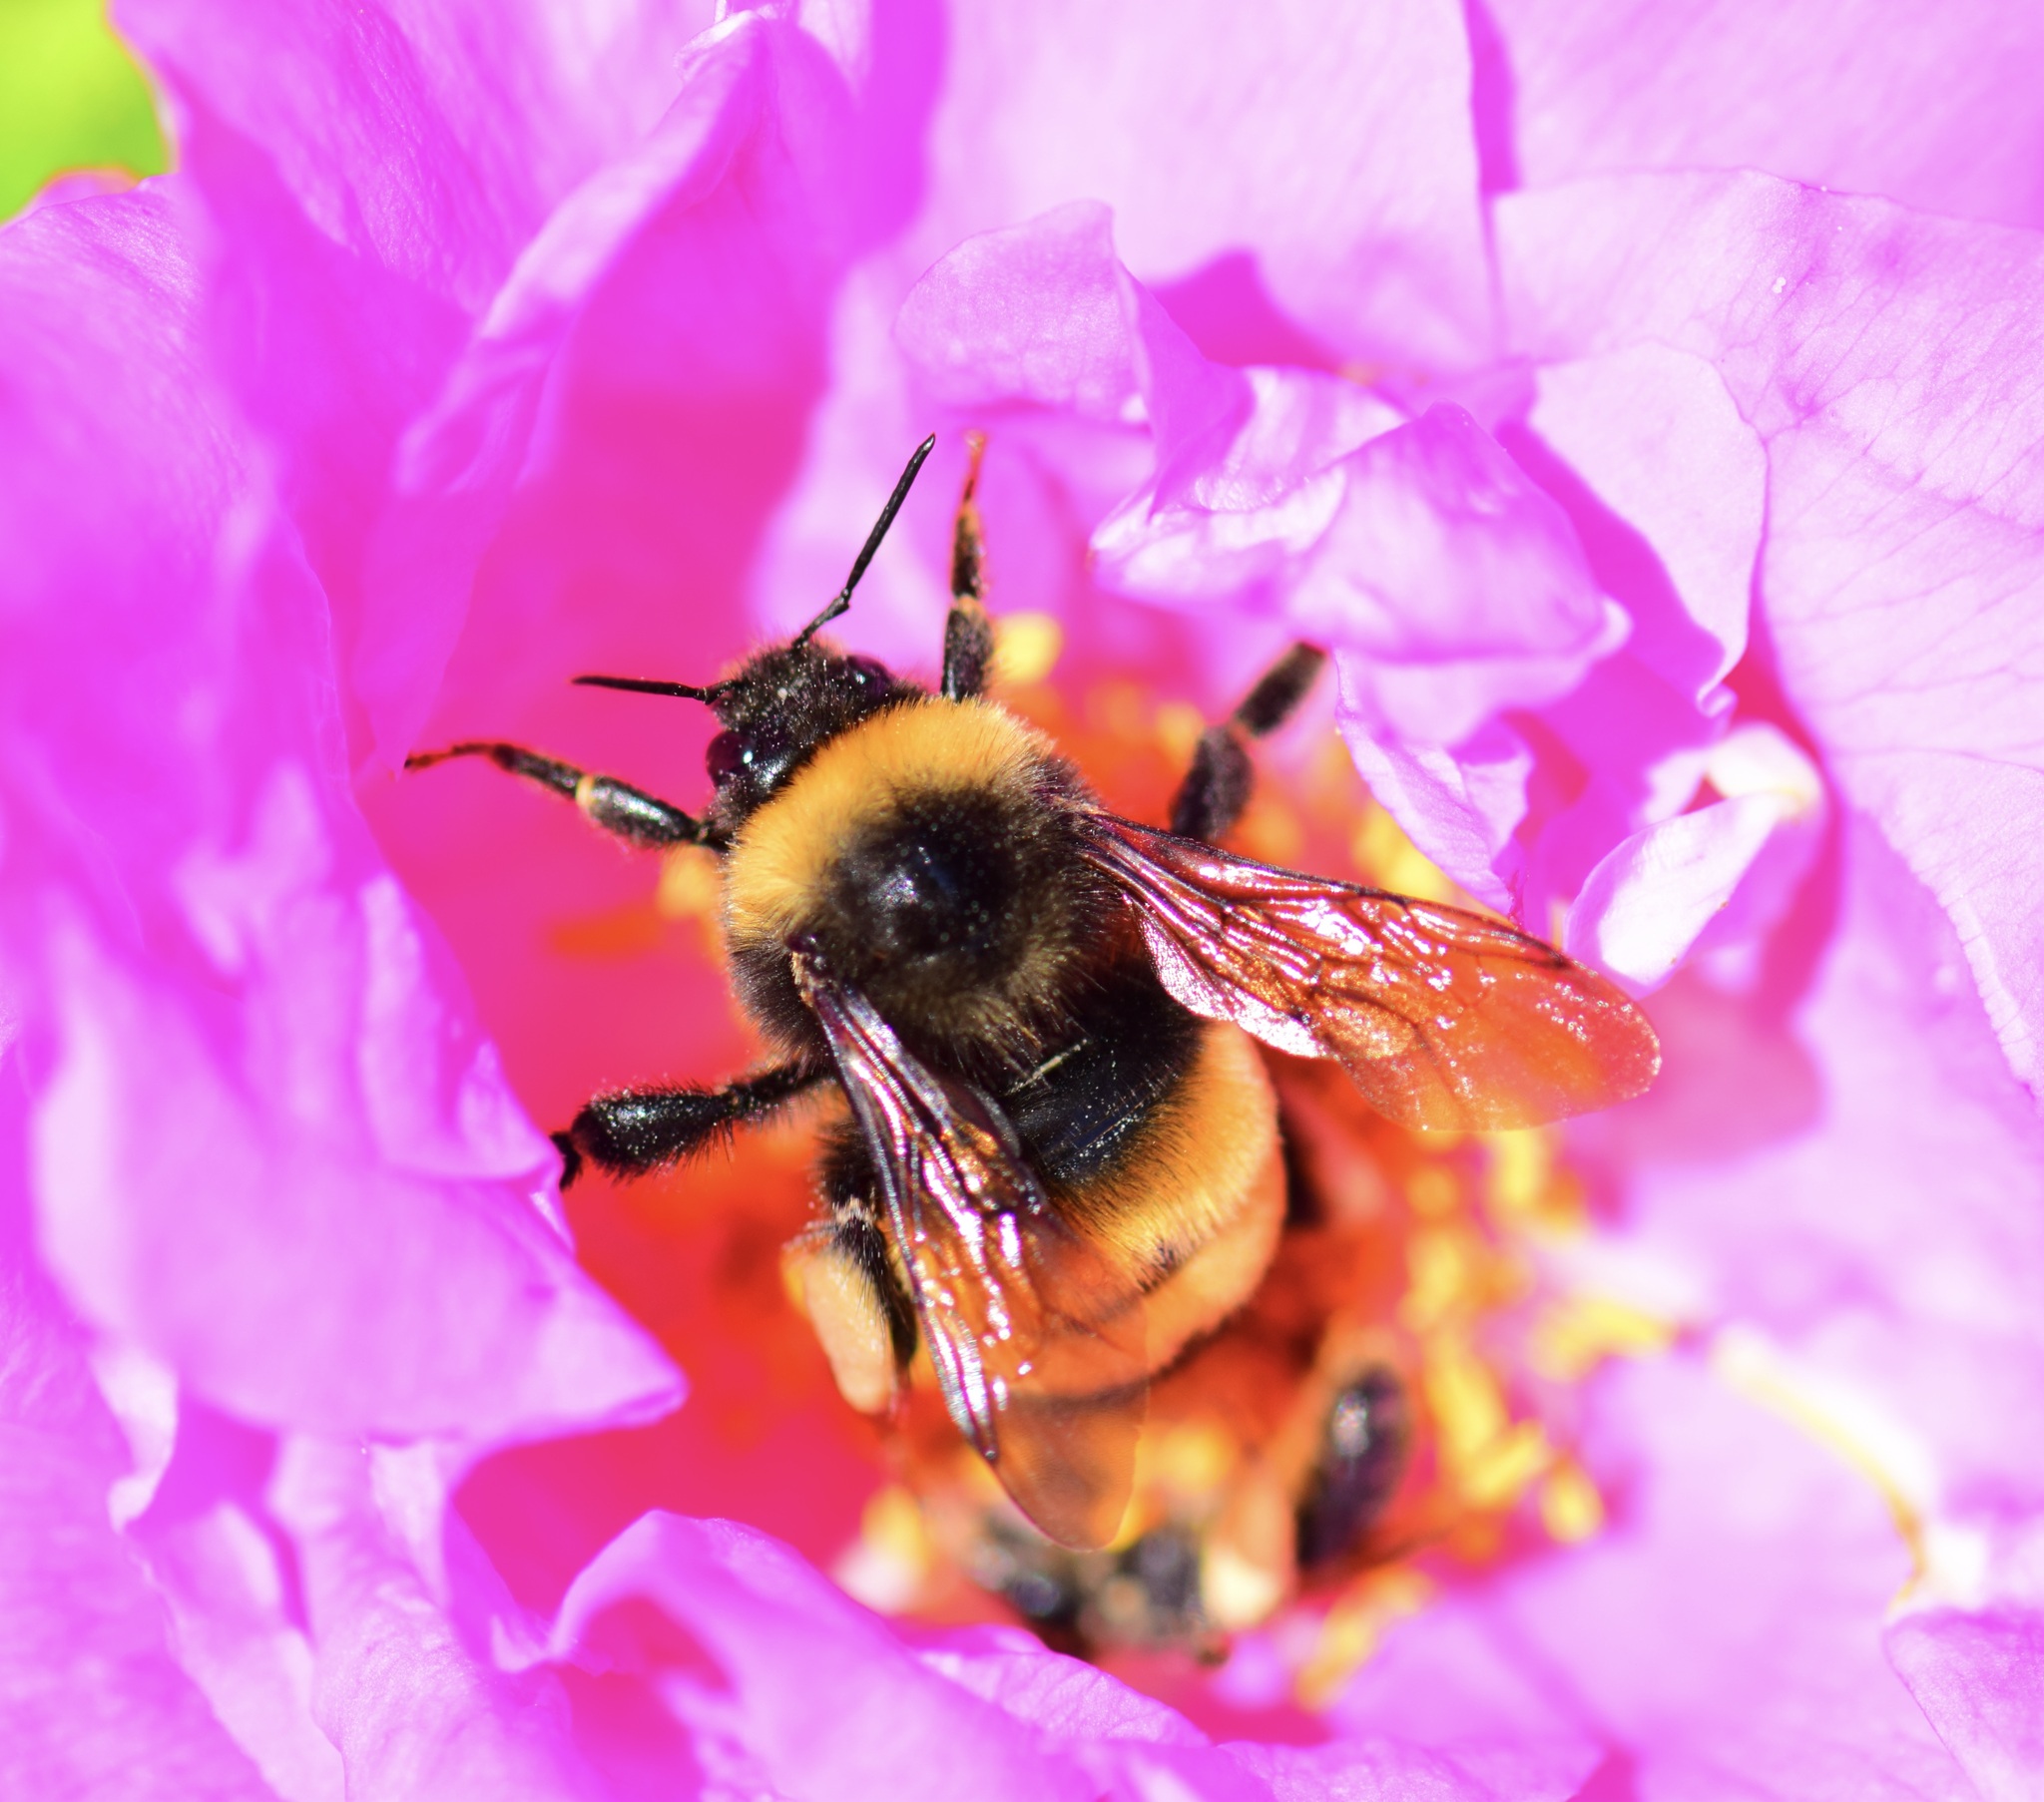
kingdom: Animalia
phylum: Arthropoda
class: Insecta
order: Hymenoptera
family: Apidae
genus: Bombus
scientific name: Bombus terricola
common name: Yellow-banded bumble bee
